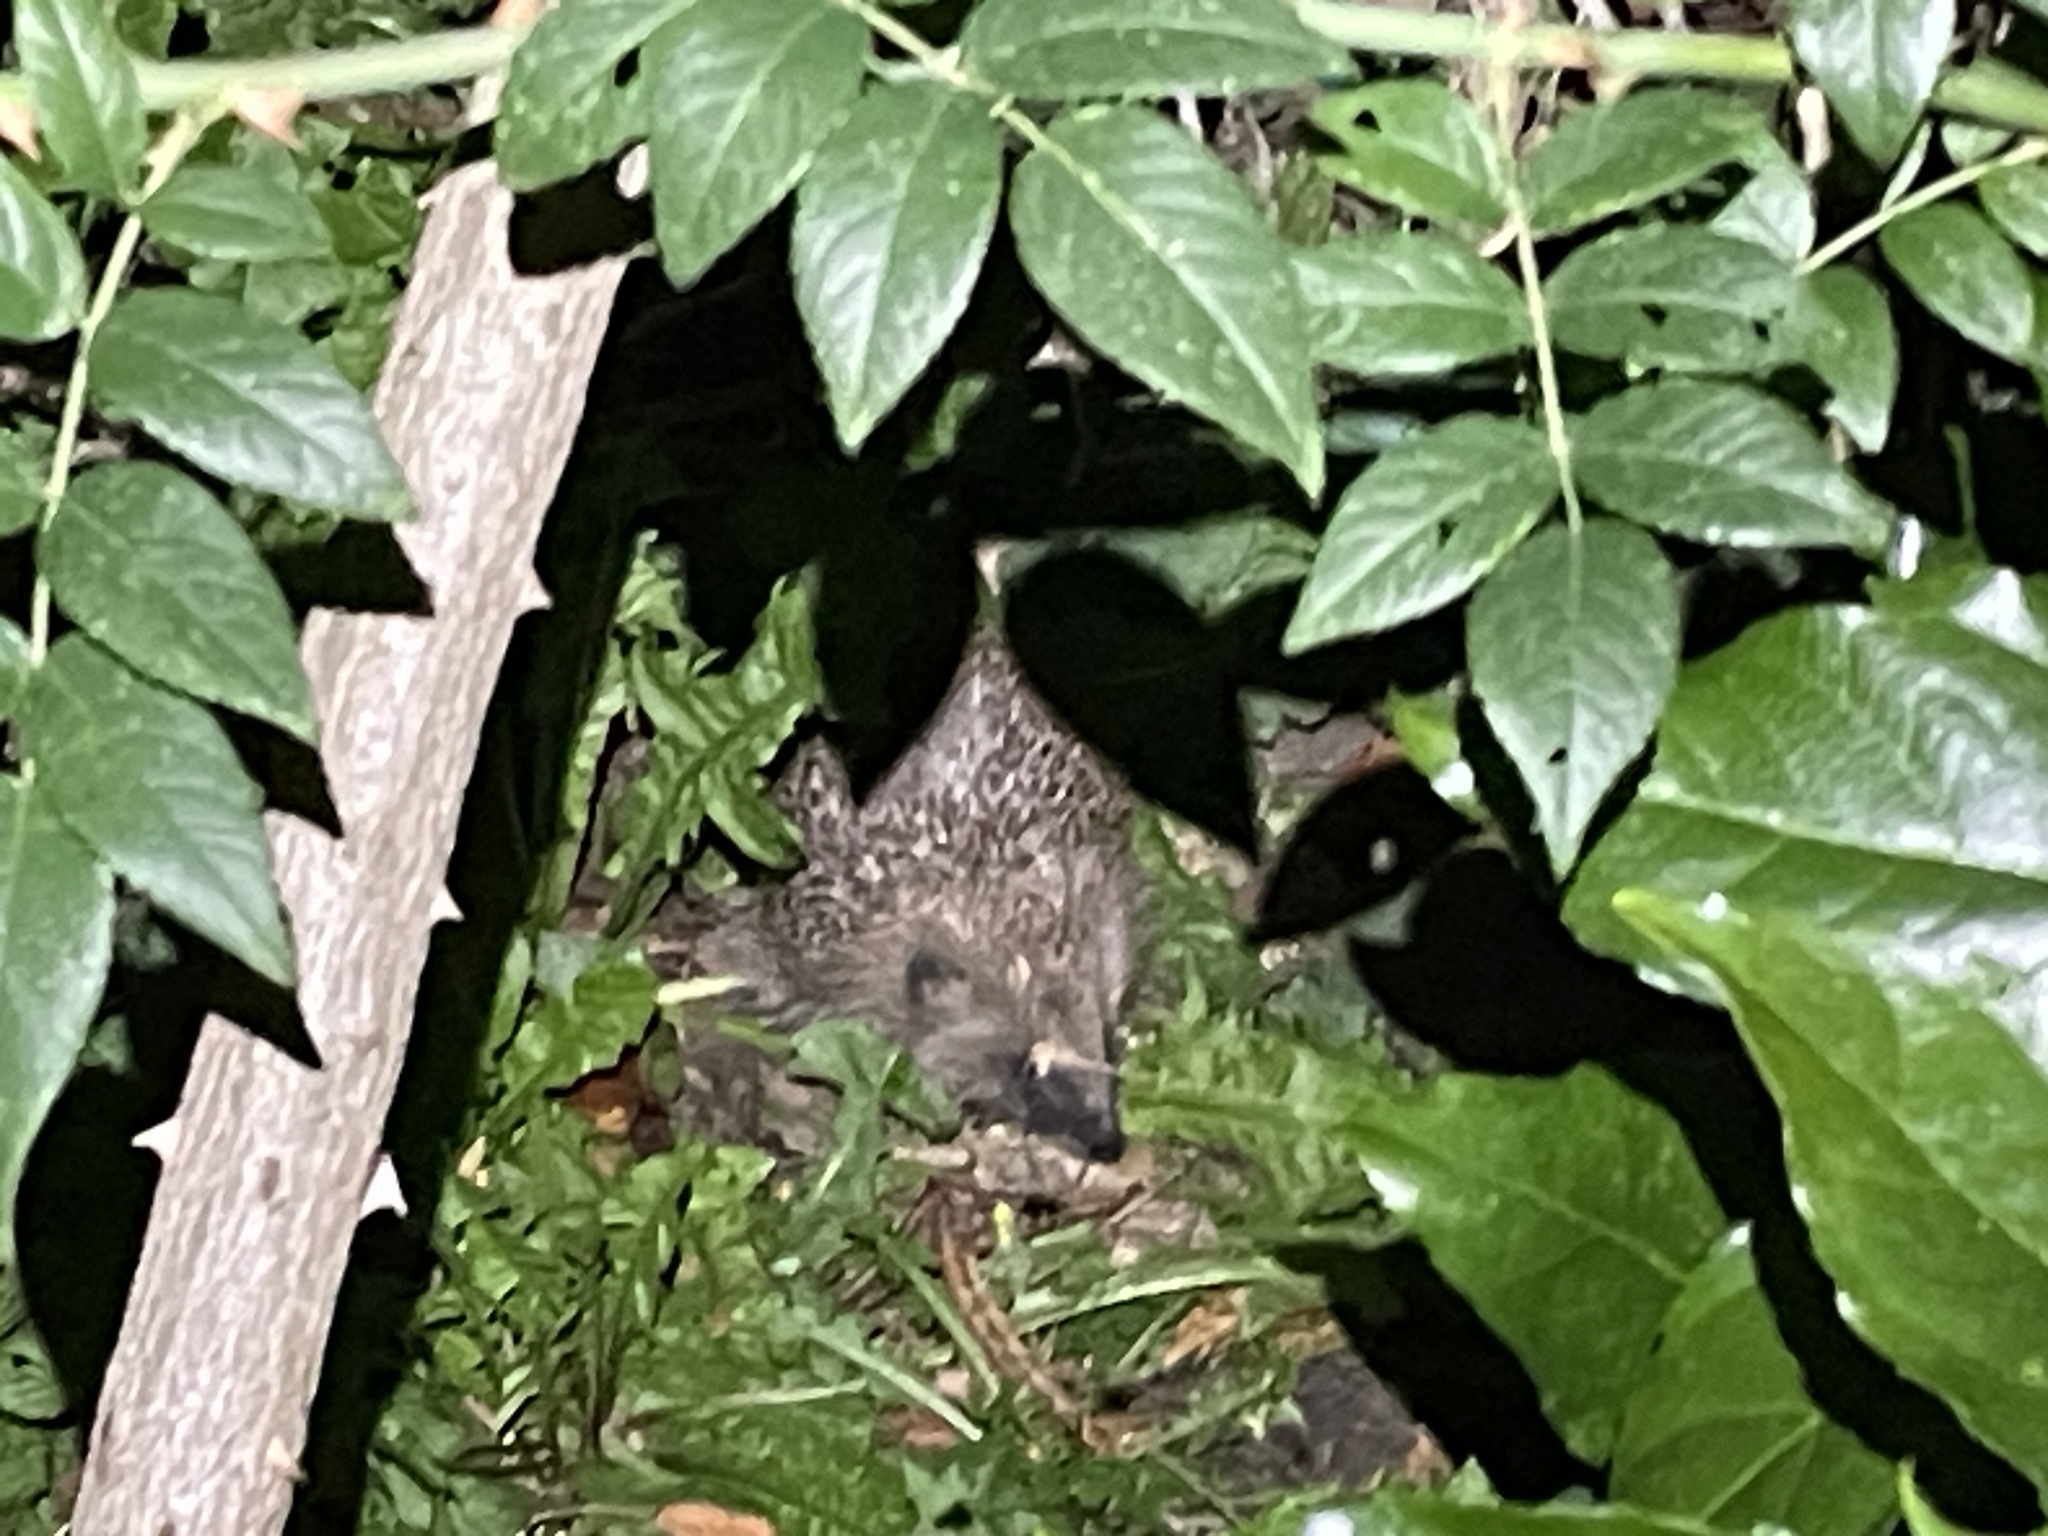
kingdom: Animalia
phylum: Chordata
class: Mammalia
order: Erinaceomorpha
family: Erinaceidae
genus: Erinaceus
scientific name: Erinaceus europaeus
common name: West european hedgehog
